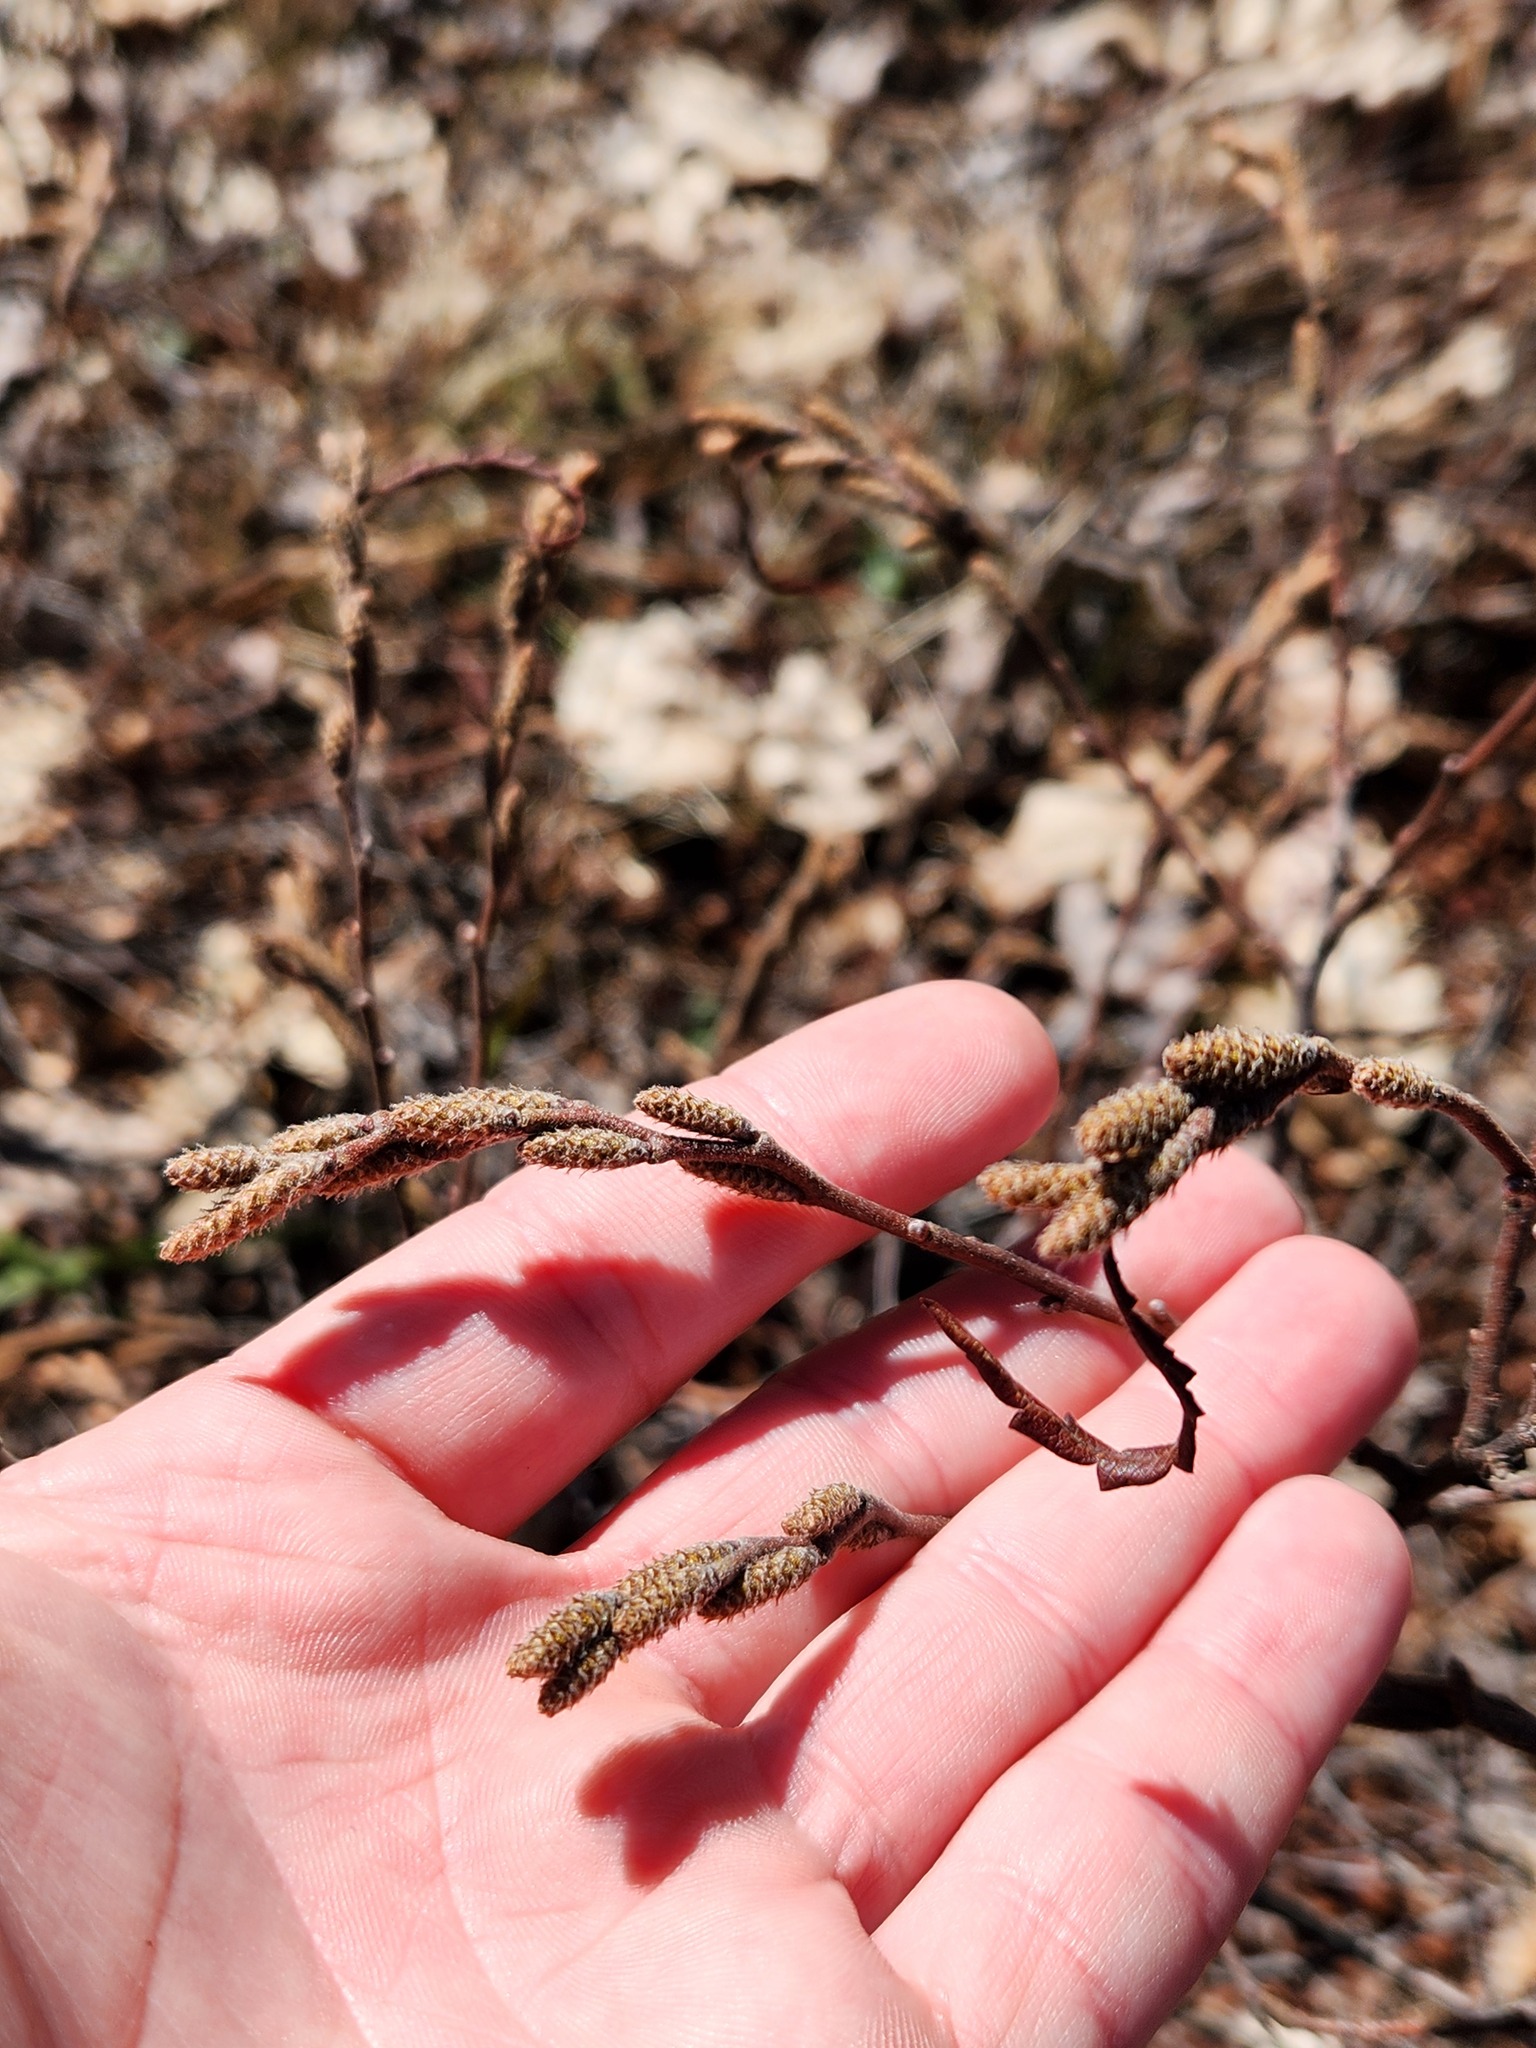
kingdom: Plantae
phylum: Tracheophyta
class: Magnoliopsida
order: Fagales
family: Myricaceae
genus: Comptonia
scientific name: Comptonia peregrina
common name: Sweet-fern
